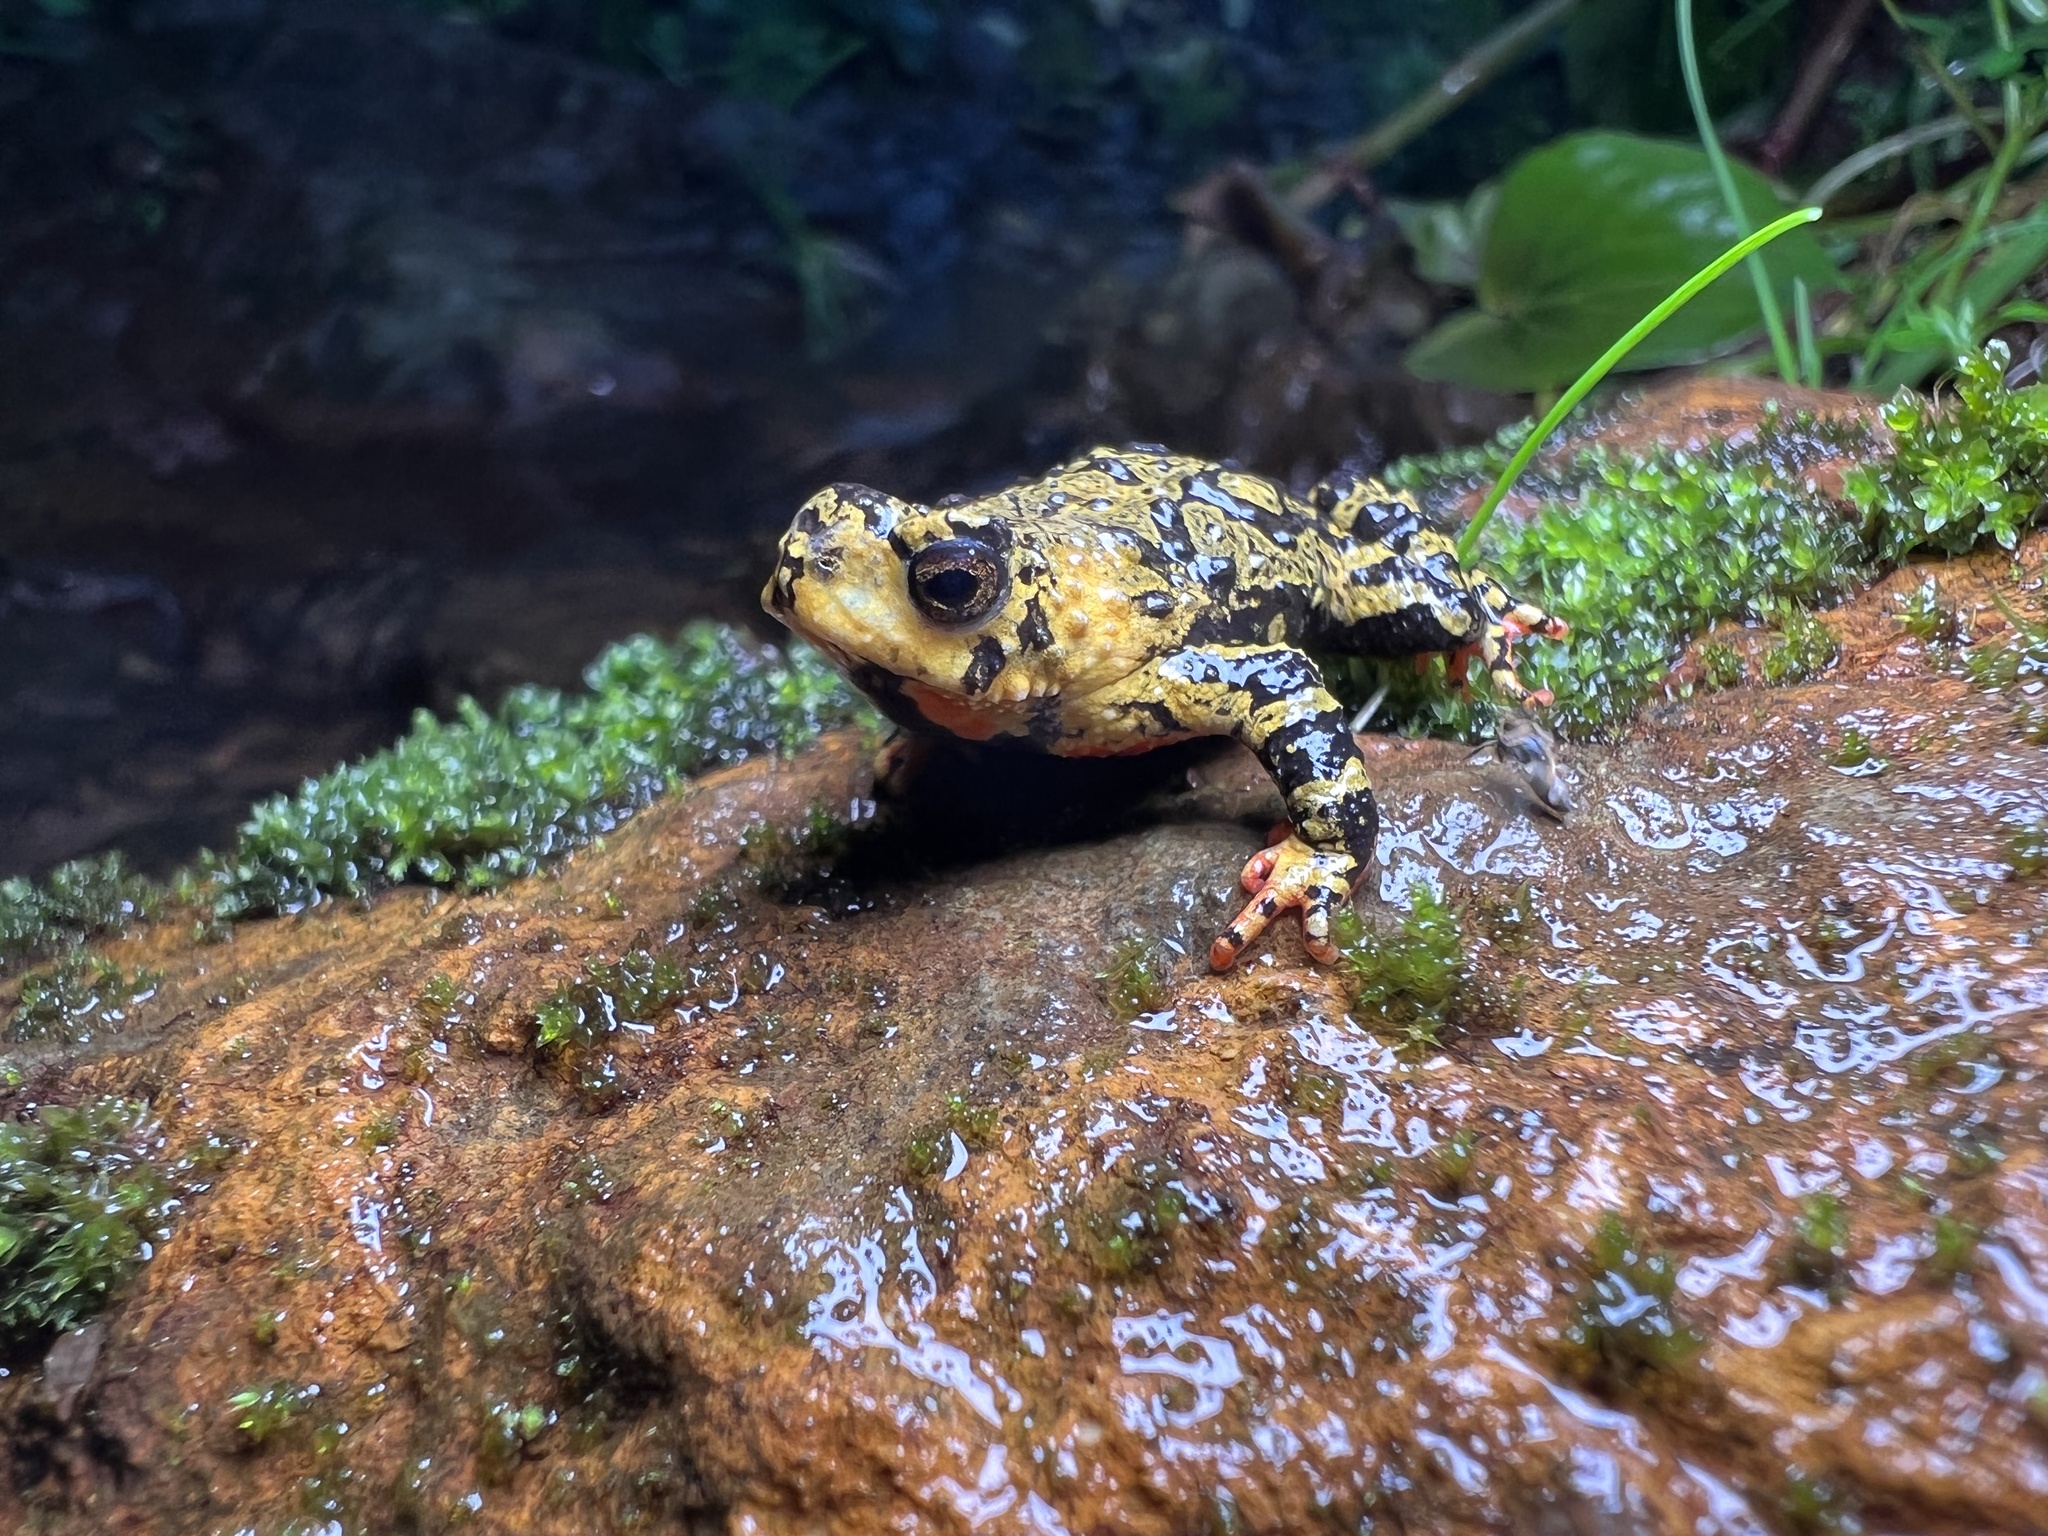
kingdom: Animalia
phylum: Chordata
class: Amphibia
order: Anura
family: Bufonidae
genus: Melanophryniscus
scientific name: Melanophryniscus spectabilis
